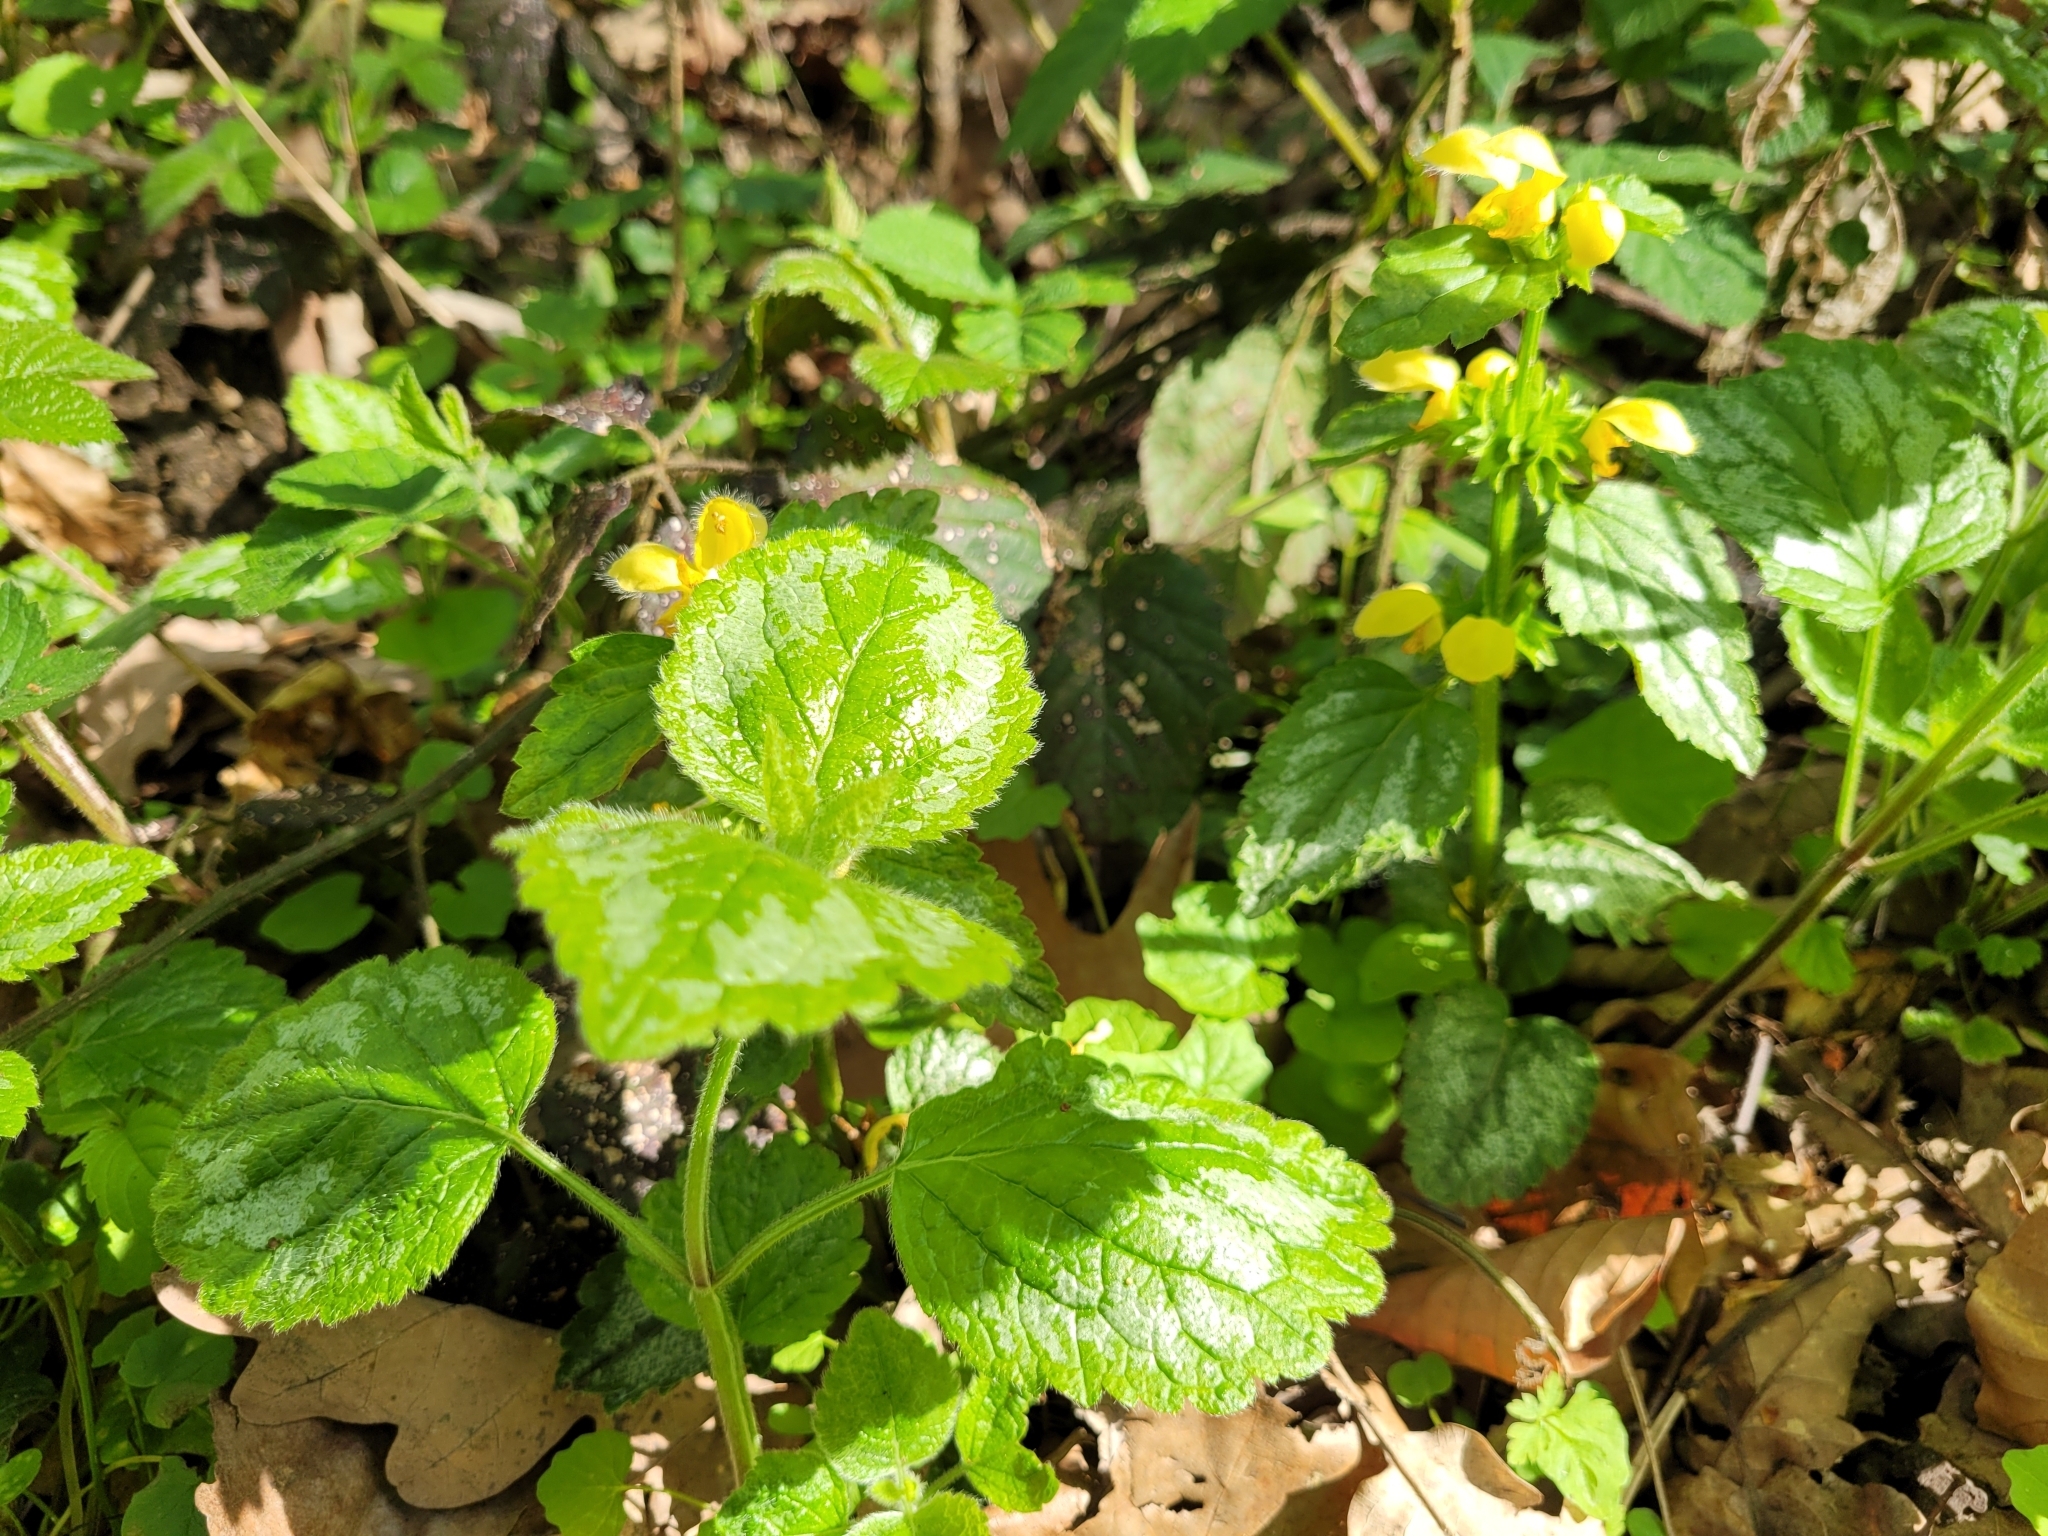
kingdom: Plantae
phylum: Tracheophyta
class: Magnoliopsida
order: Lamiales
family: Lamiaceae
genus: Lamium
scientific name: Lamium galeobdolon
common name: Yellow archangel
